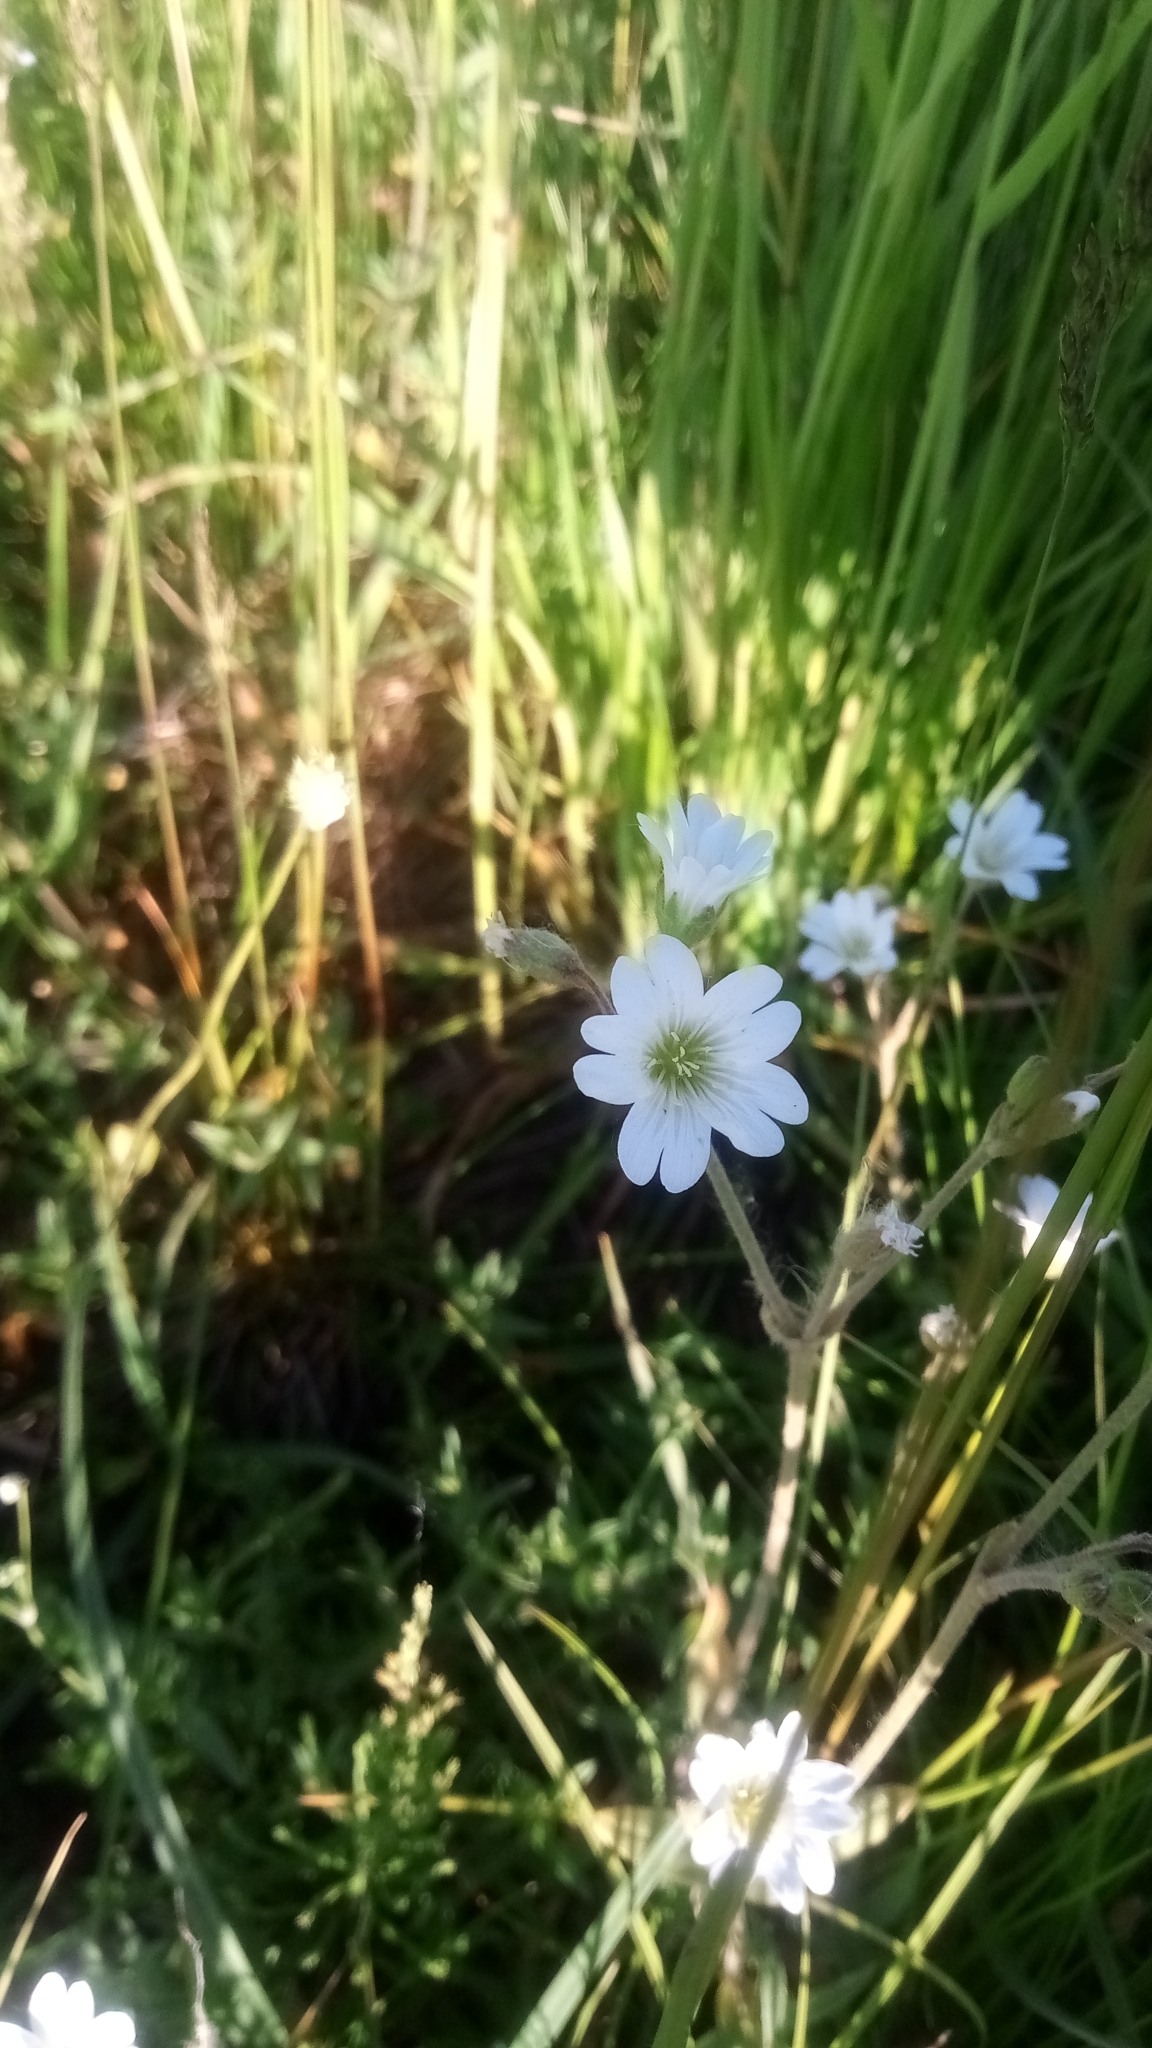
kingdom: Plantae
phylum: Tracheophyta
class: Magnoliopsida
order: Caryophyllales
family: Caryophyllaceae
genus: Cerastium
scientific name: Cerastium arvense
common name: Field mouse-ear
